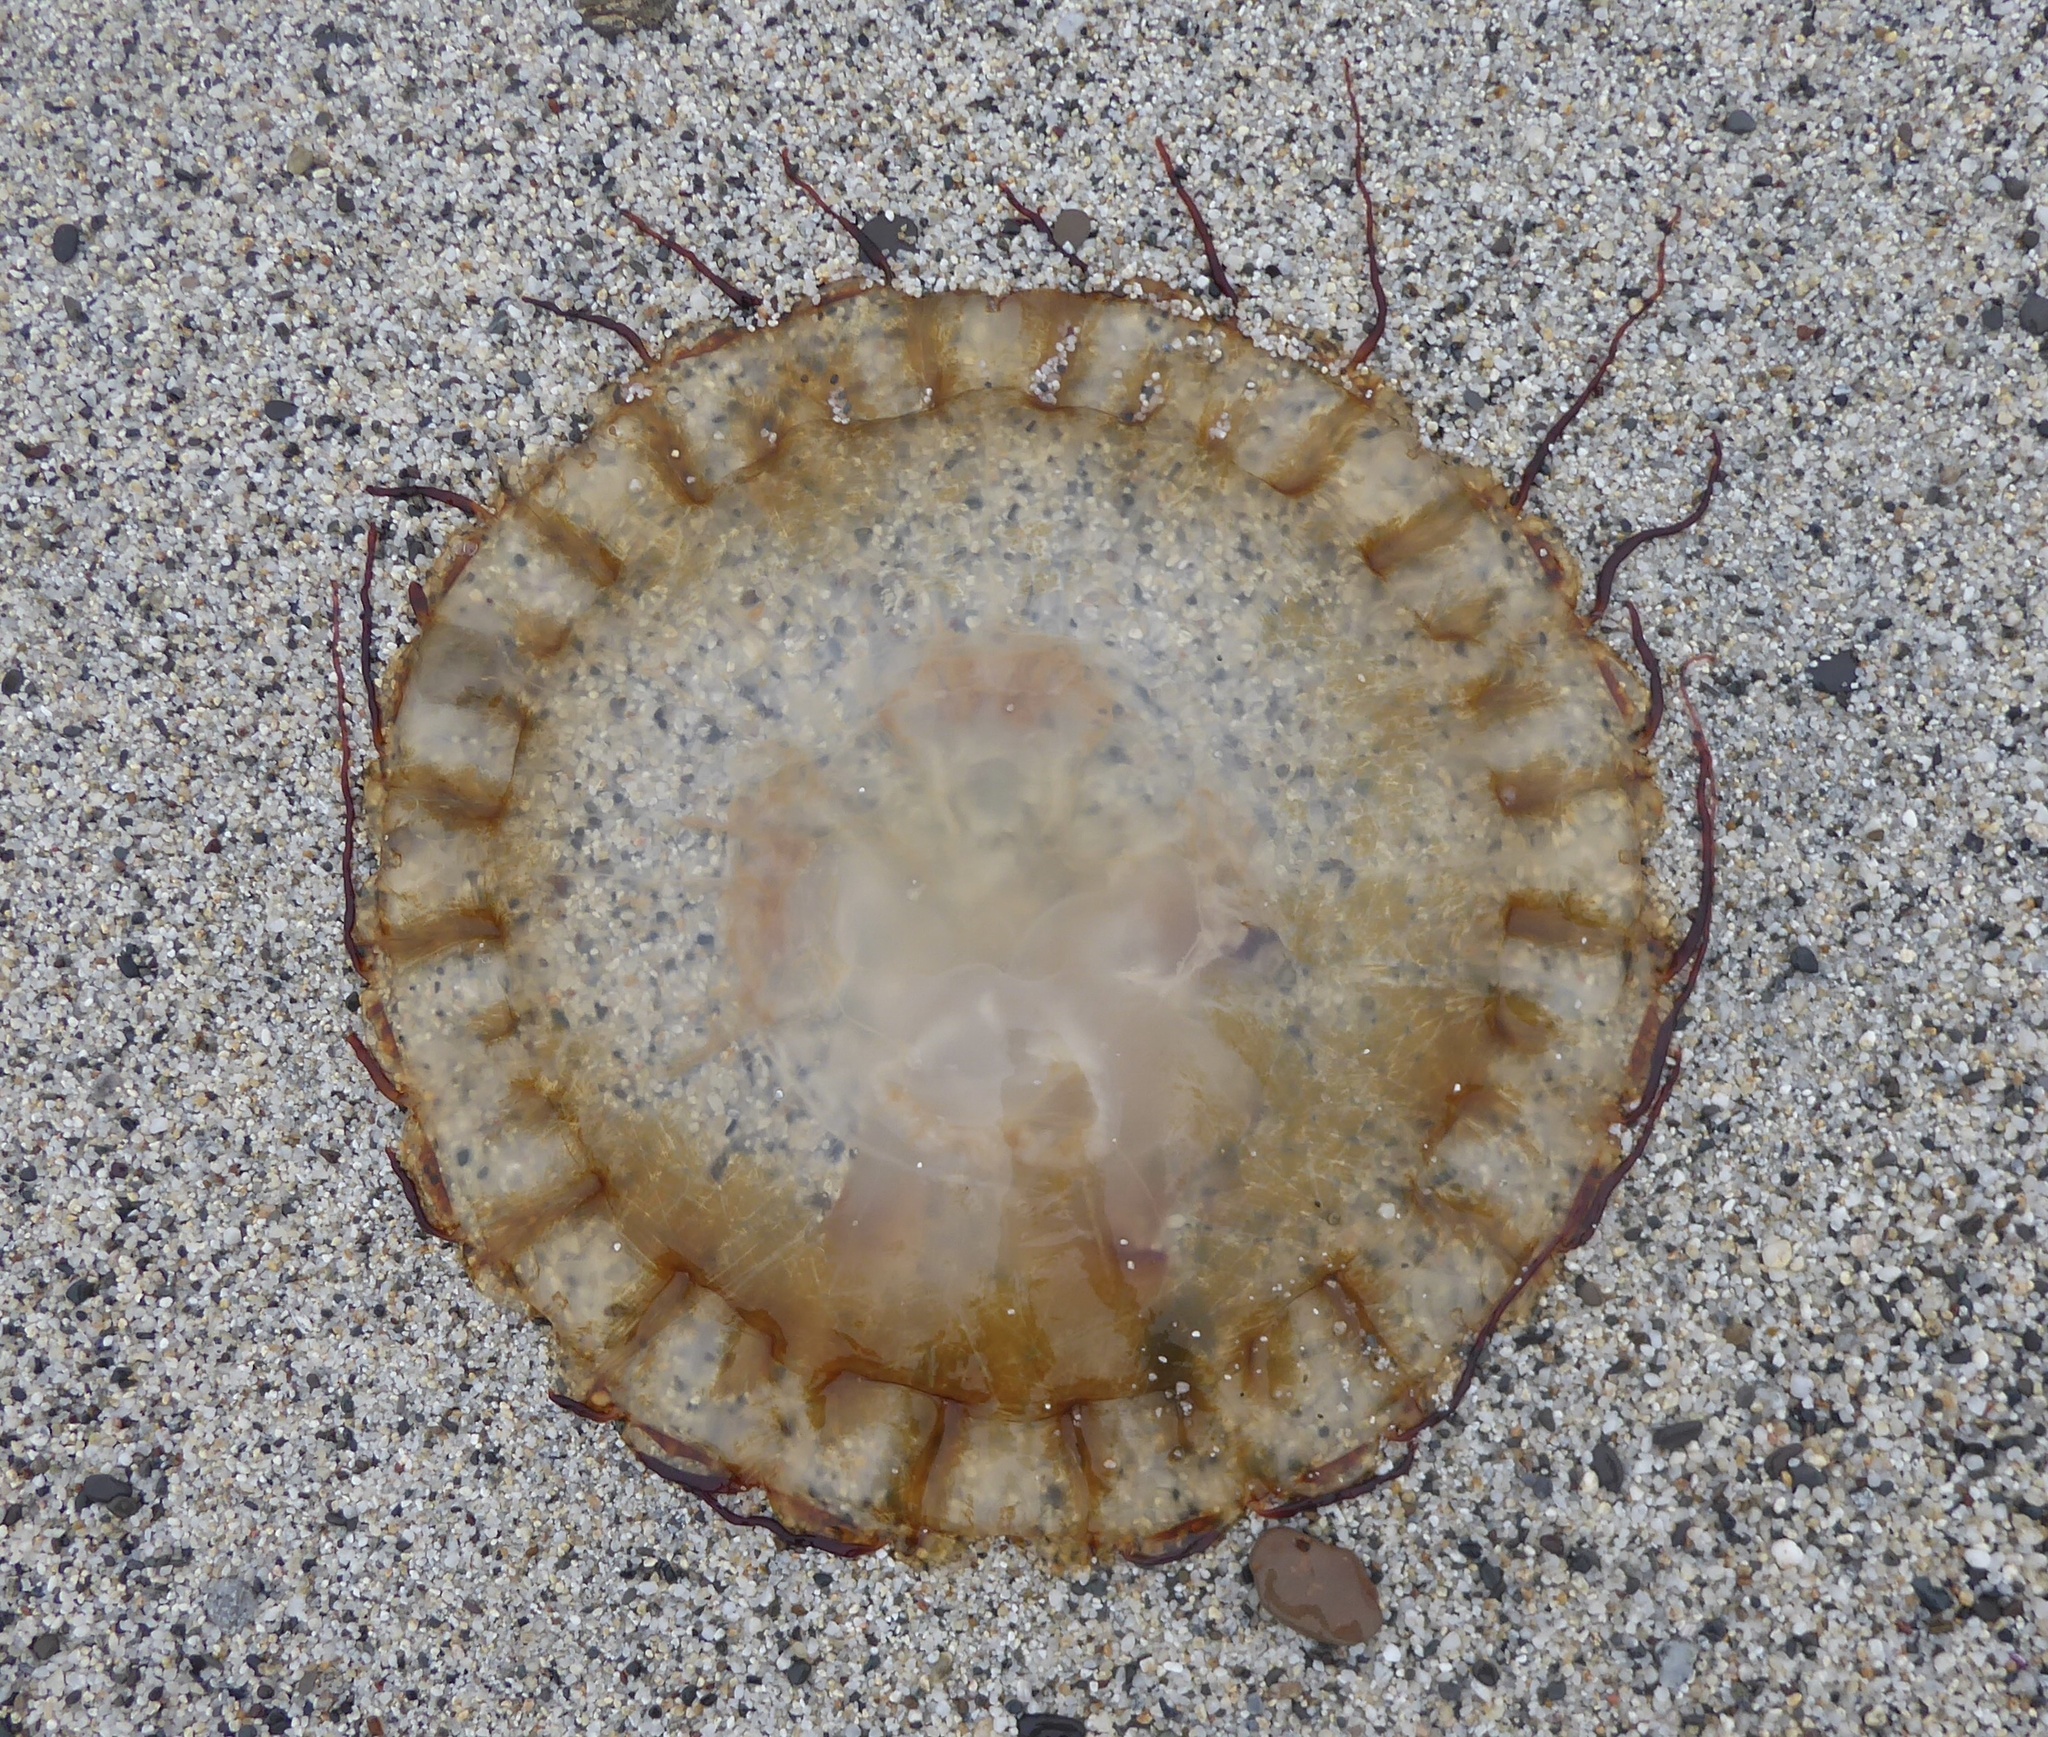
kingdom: Animalia
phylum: Cnidaria
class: Scyphozoa
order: Semaeostomeae
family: Pelagiidae
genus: Chrysaora
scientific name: Chrysaora fuscescens
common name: Sea nettle
